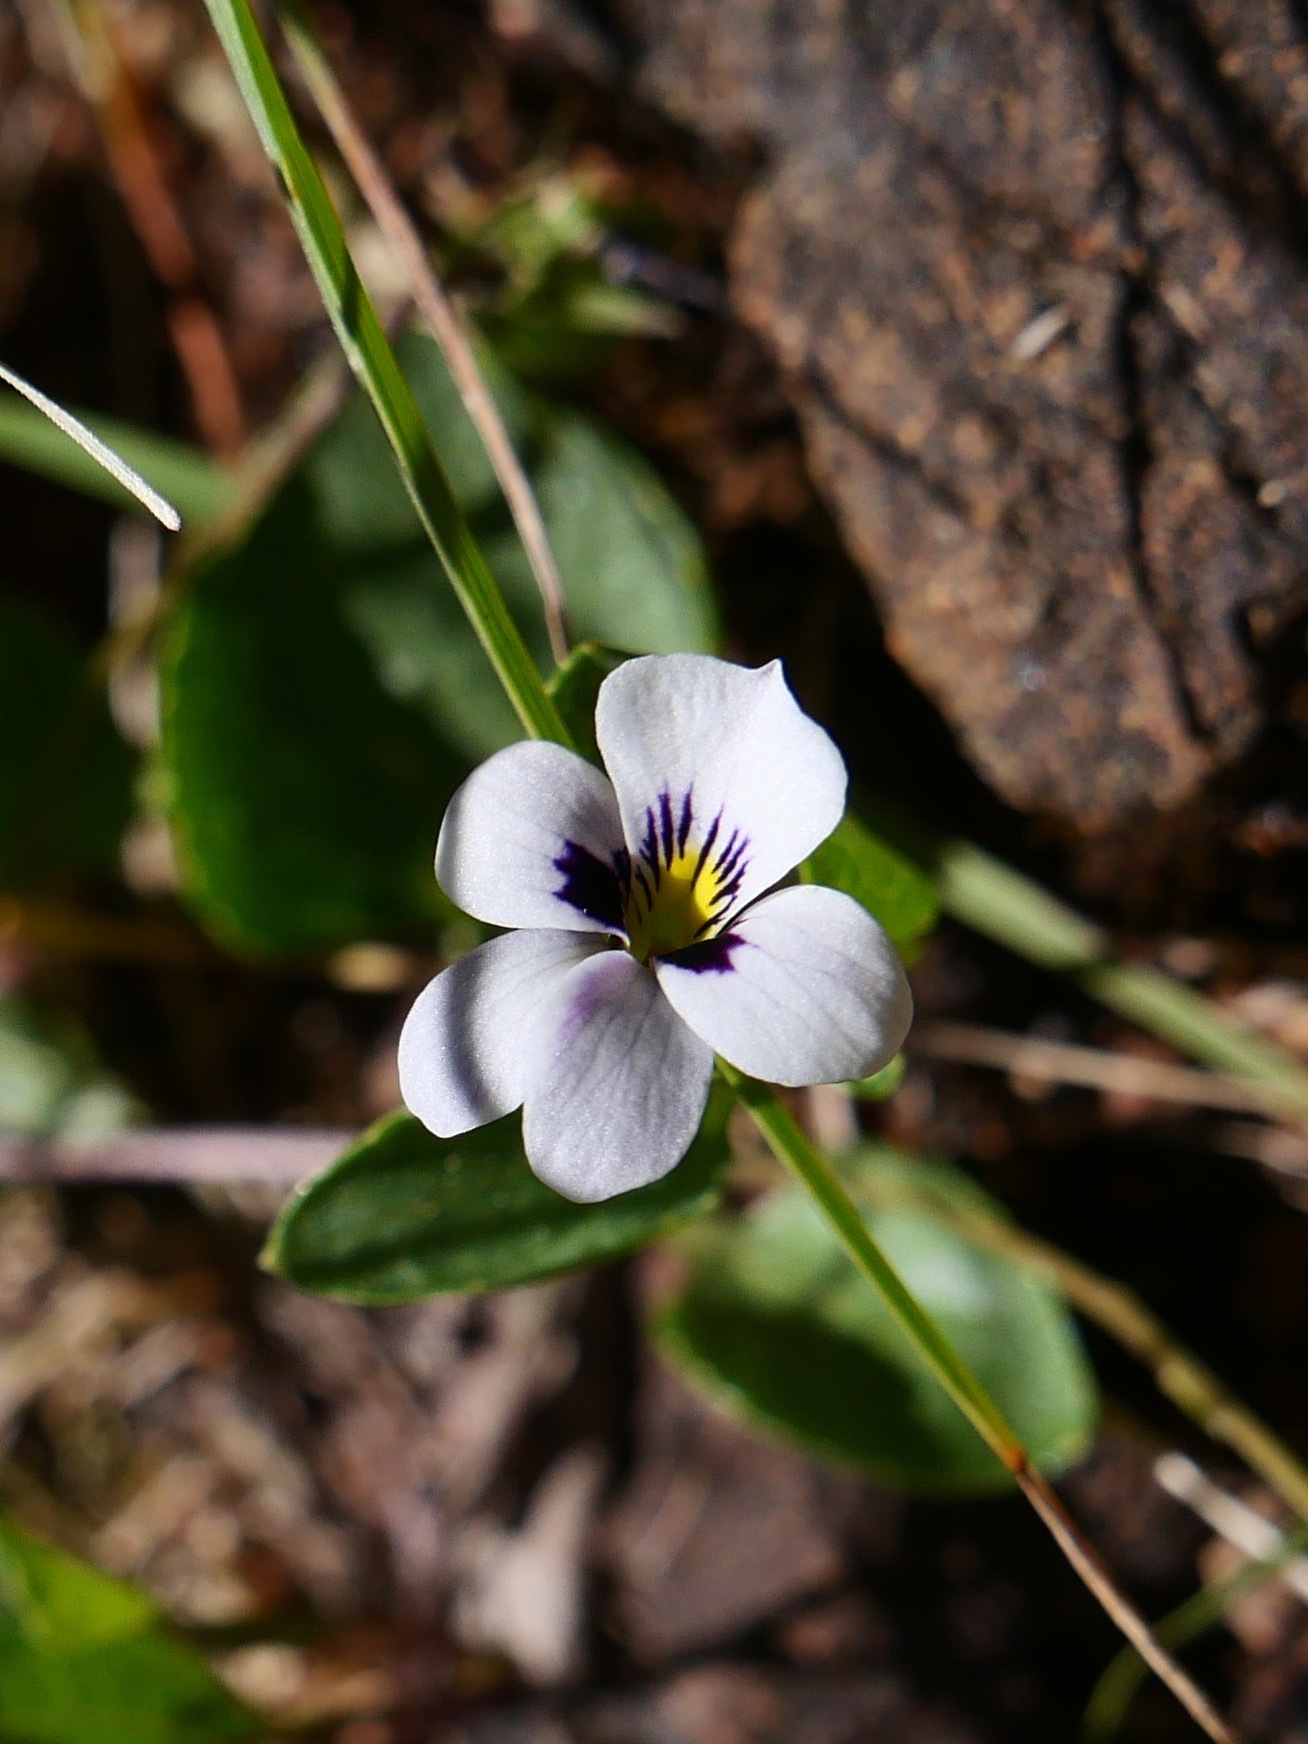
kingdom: Plantae
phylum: Tracheophyta
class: Magnoliopsida
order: Malpighiales
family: Violaceae
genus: Viola
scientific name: Viola cuneata
